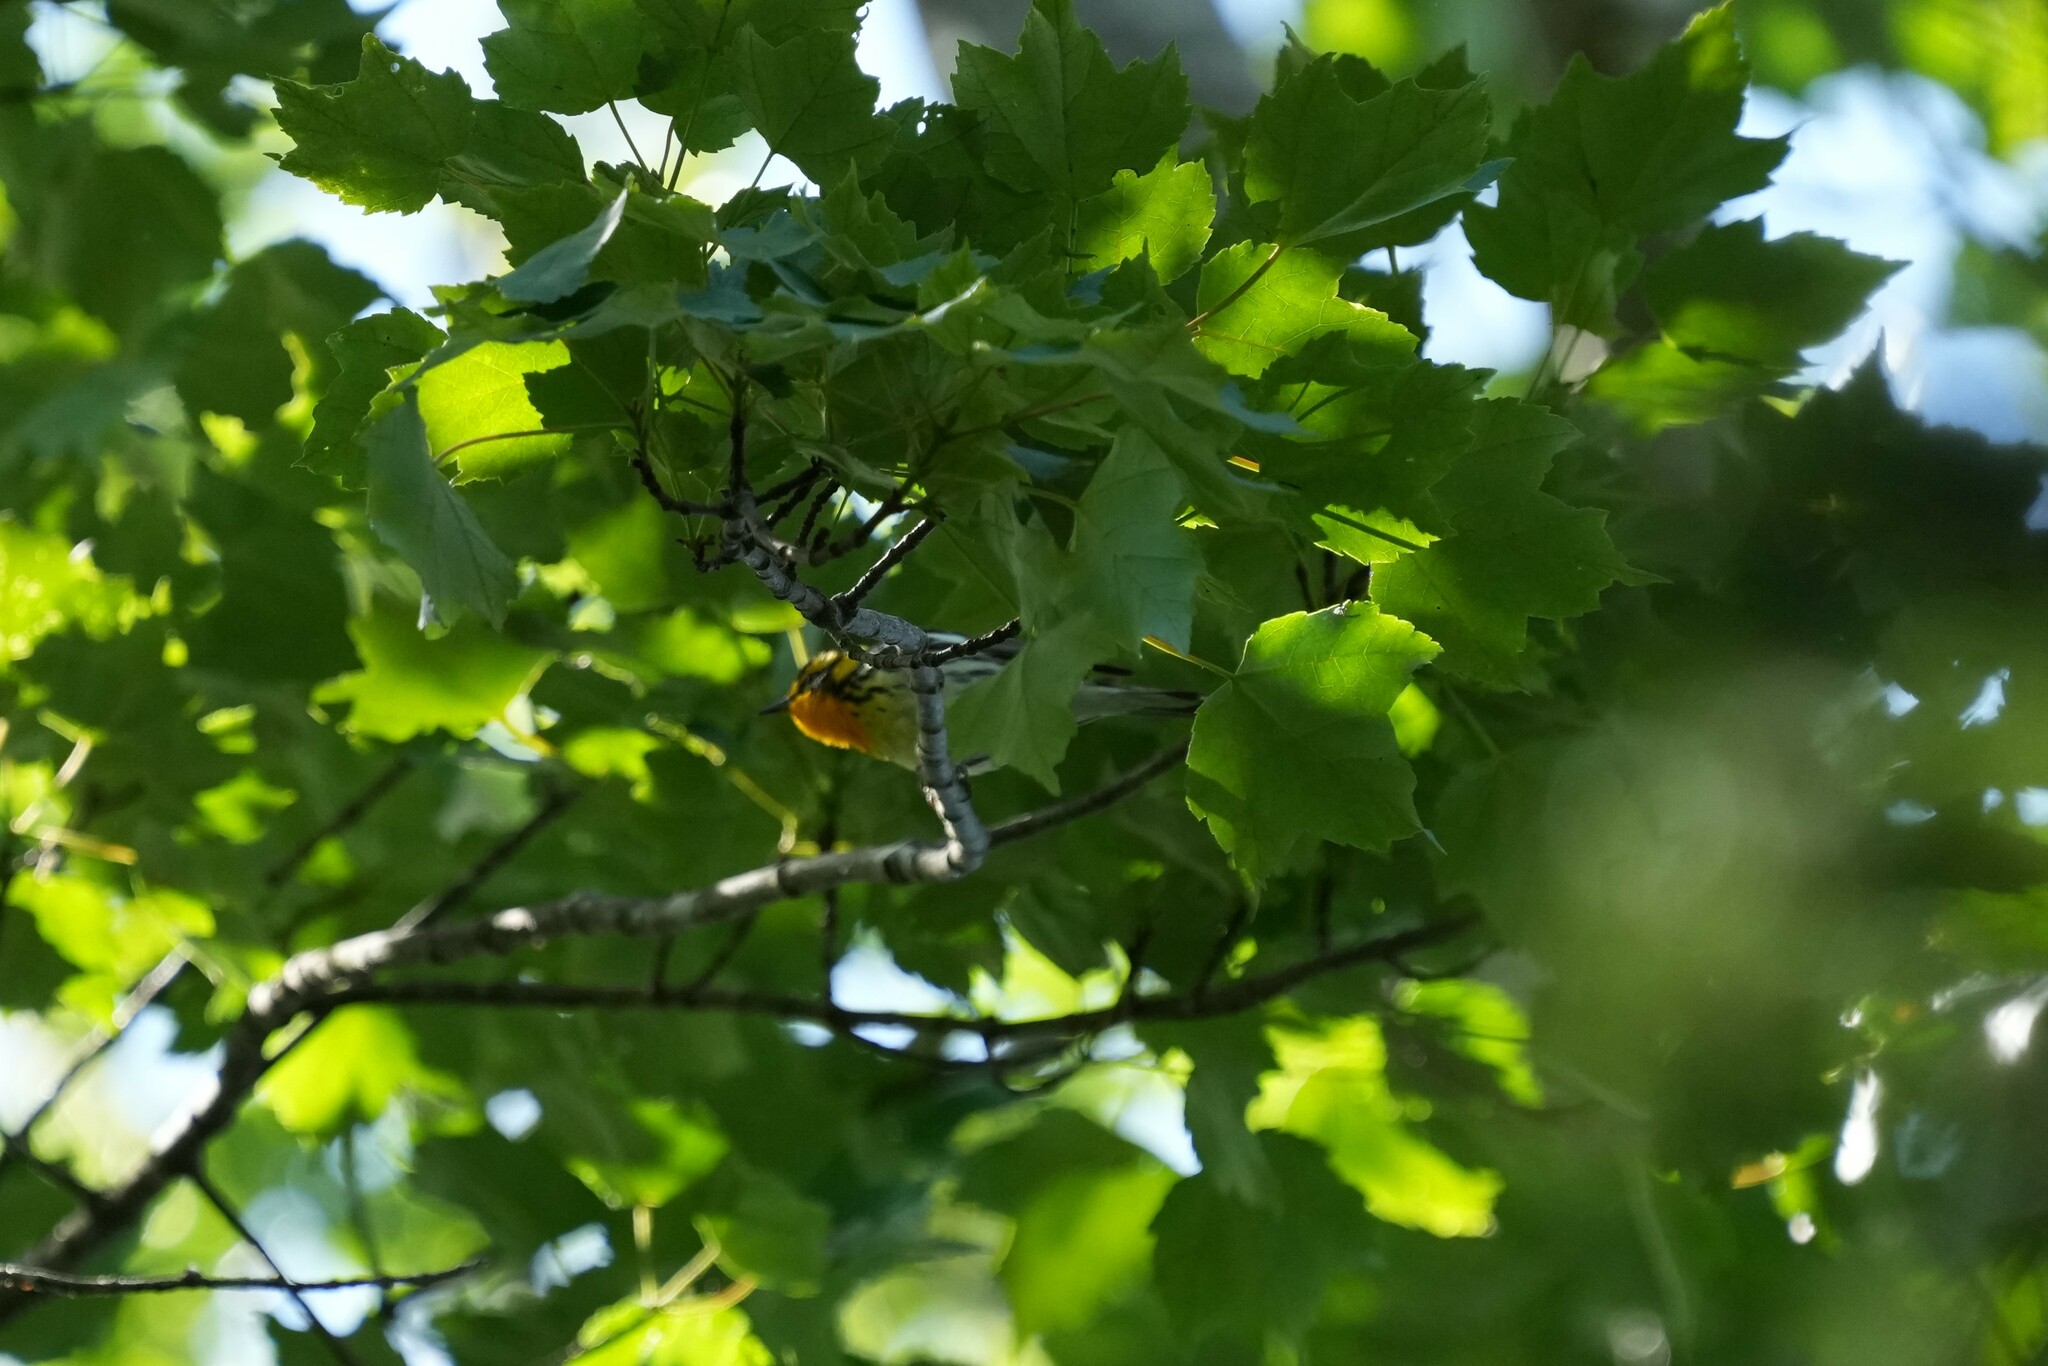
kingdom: Animalia
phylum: Chordata
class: Aves
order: Passeriformes
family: Parulidae
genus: Setophaga
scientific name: Setophaga fusca
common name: Blackburnian warbler
